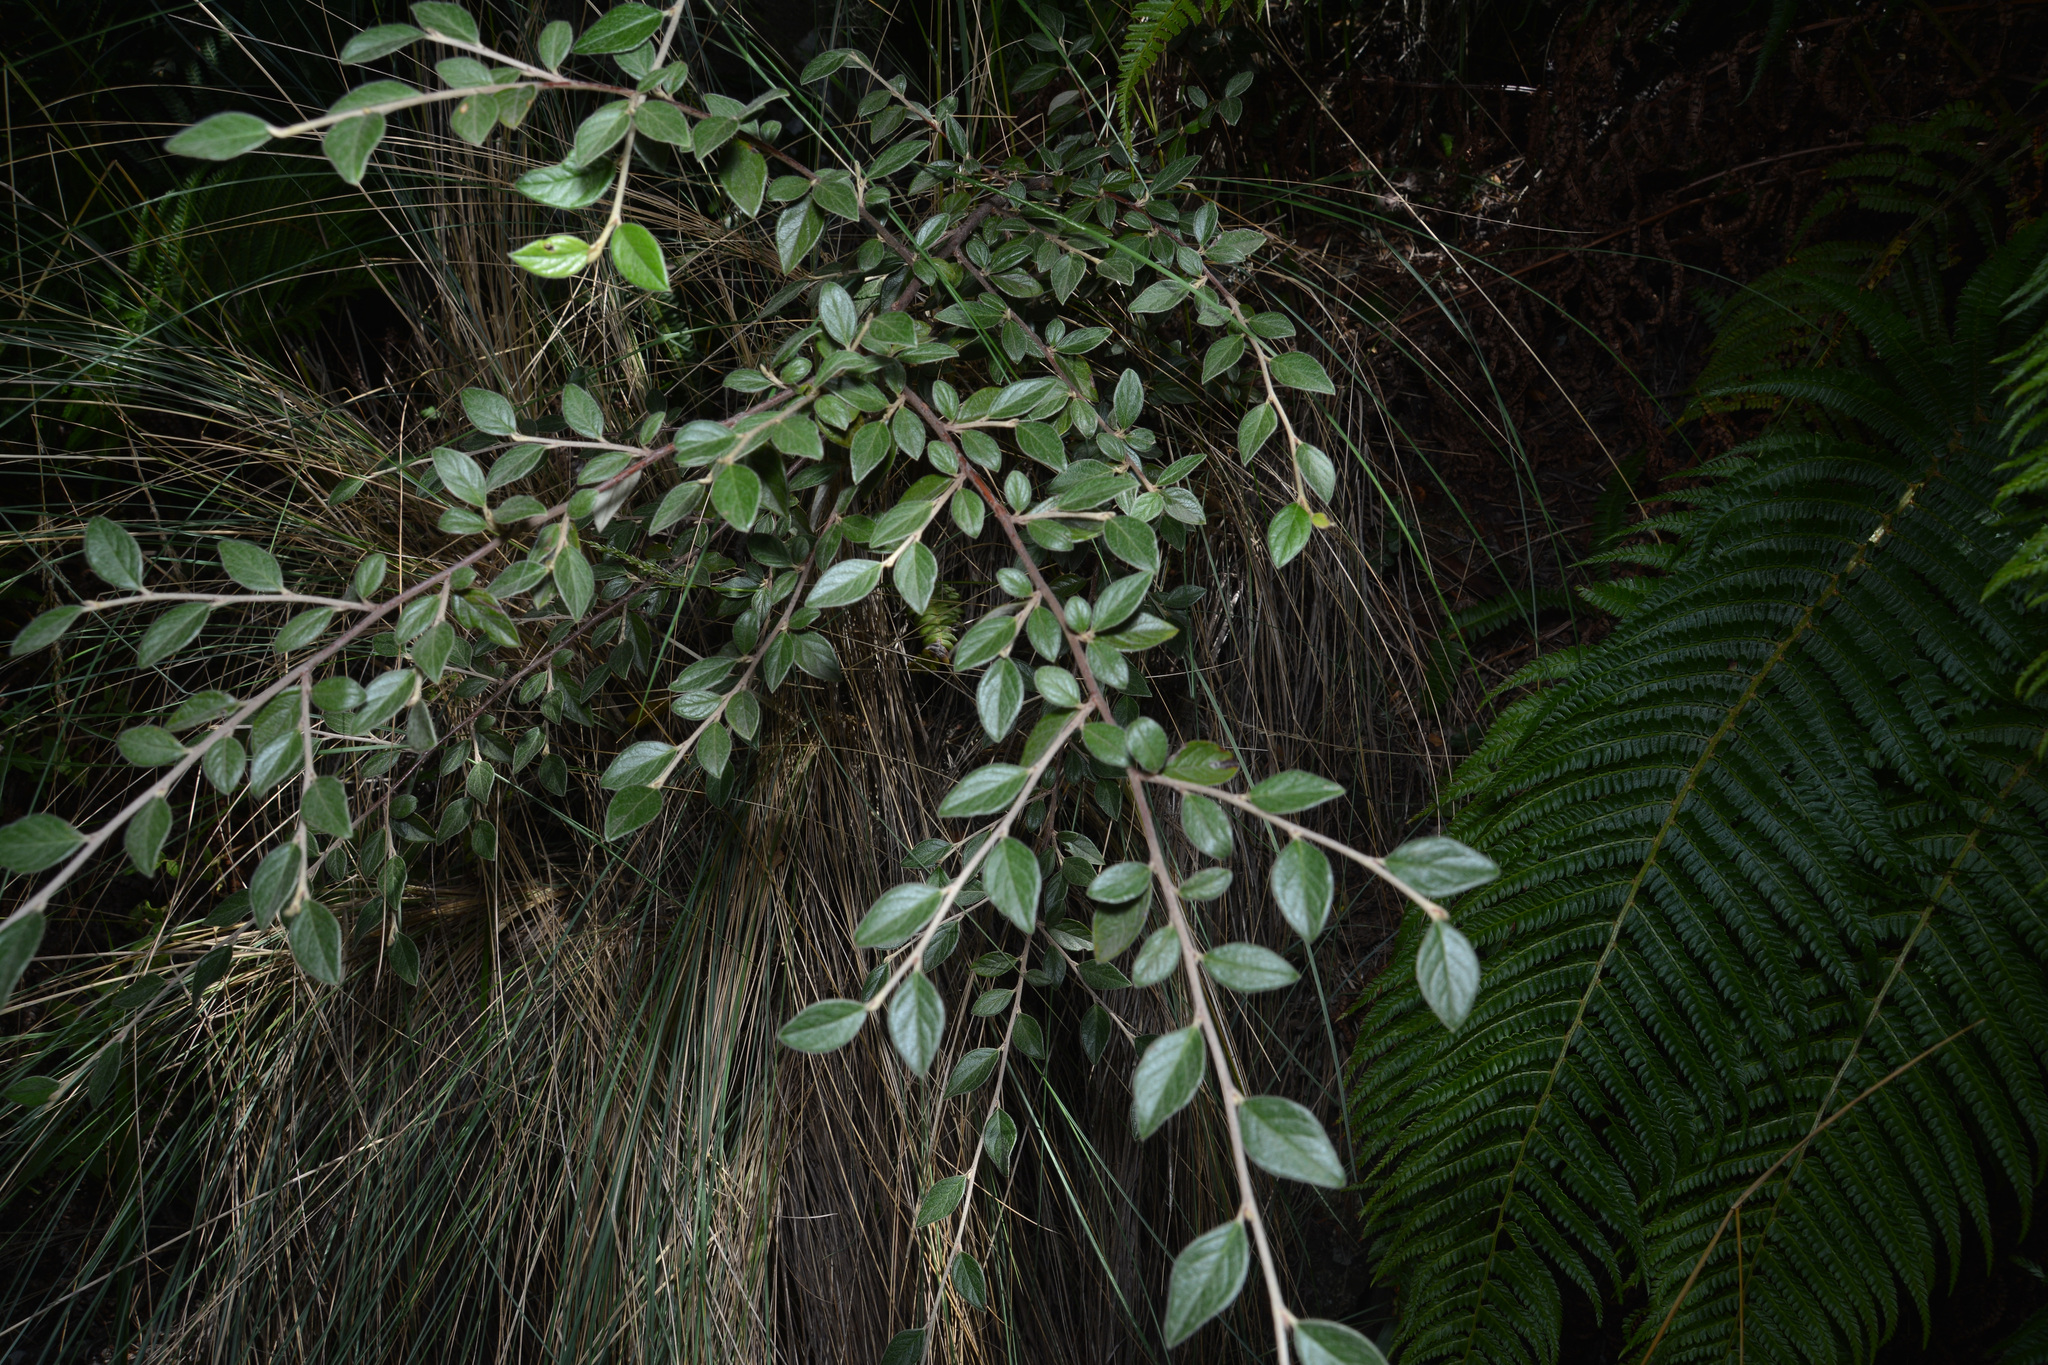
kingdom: Plantae
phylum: Tracheophyta
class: Magnoliopsida
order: Rosales
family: Rosaceae
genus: Cotoneaster
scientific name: Cotoneaster franchetii
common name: Franchet's cotoneaster
